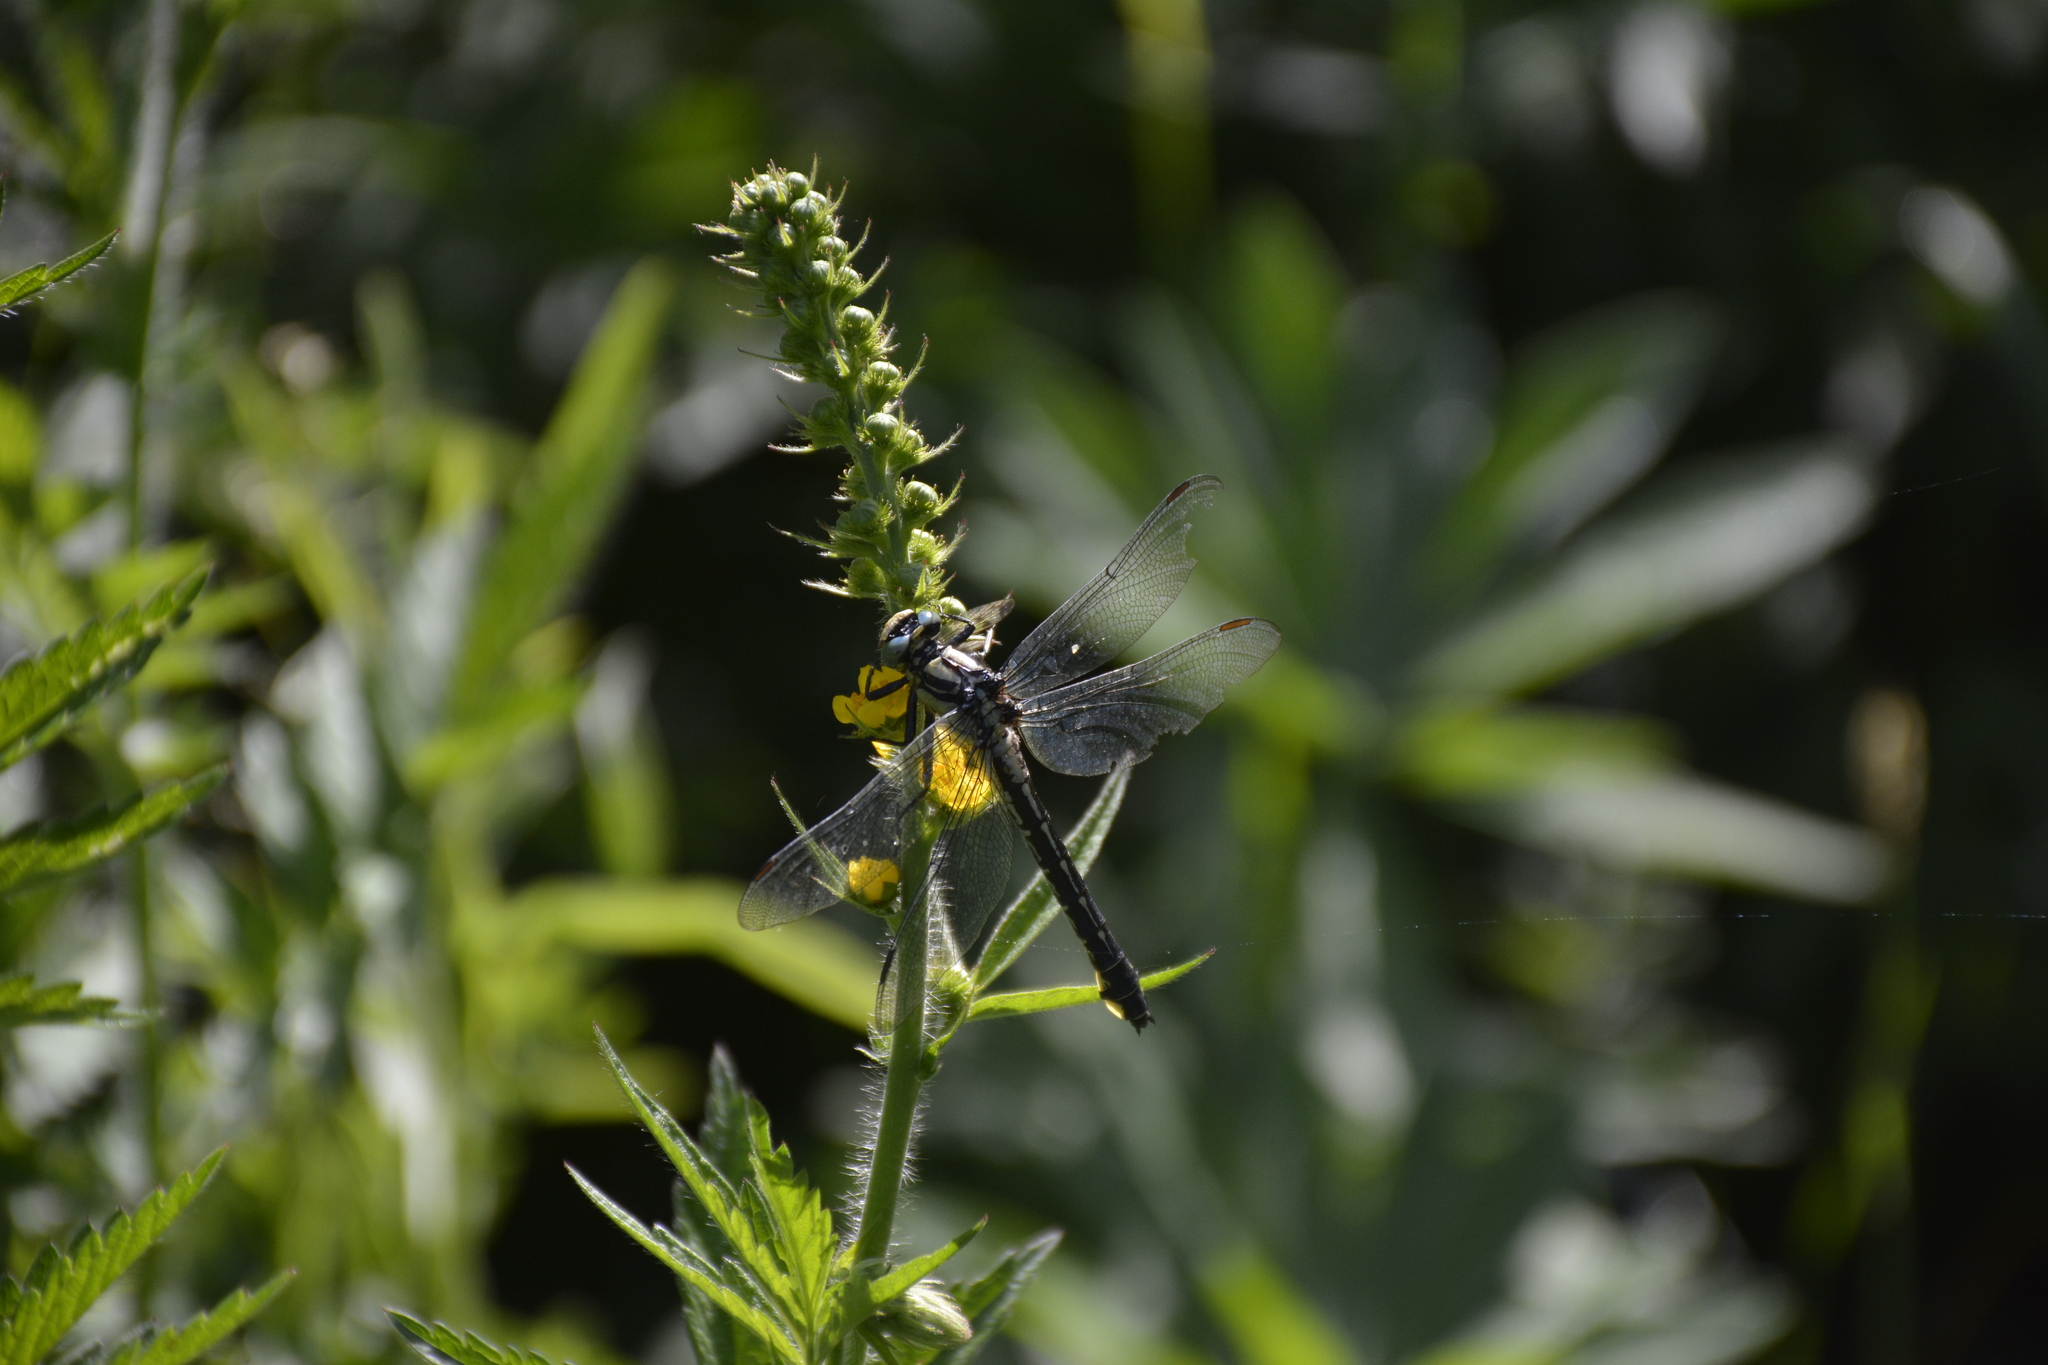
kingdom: Animalia
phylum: Arthropoda
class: Insecta
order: Odonata
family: Gomphidae
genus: Gomphus
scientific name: Gomphus vulgatissimus
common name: Club-tailed dragonfly
